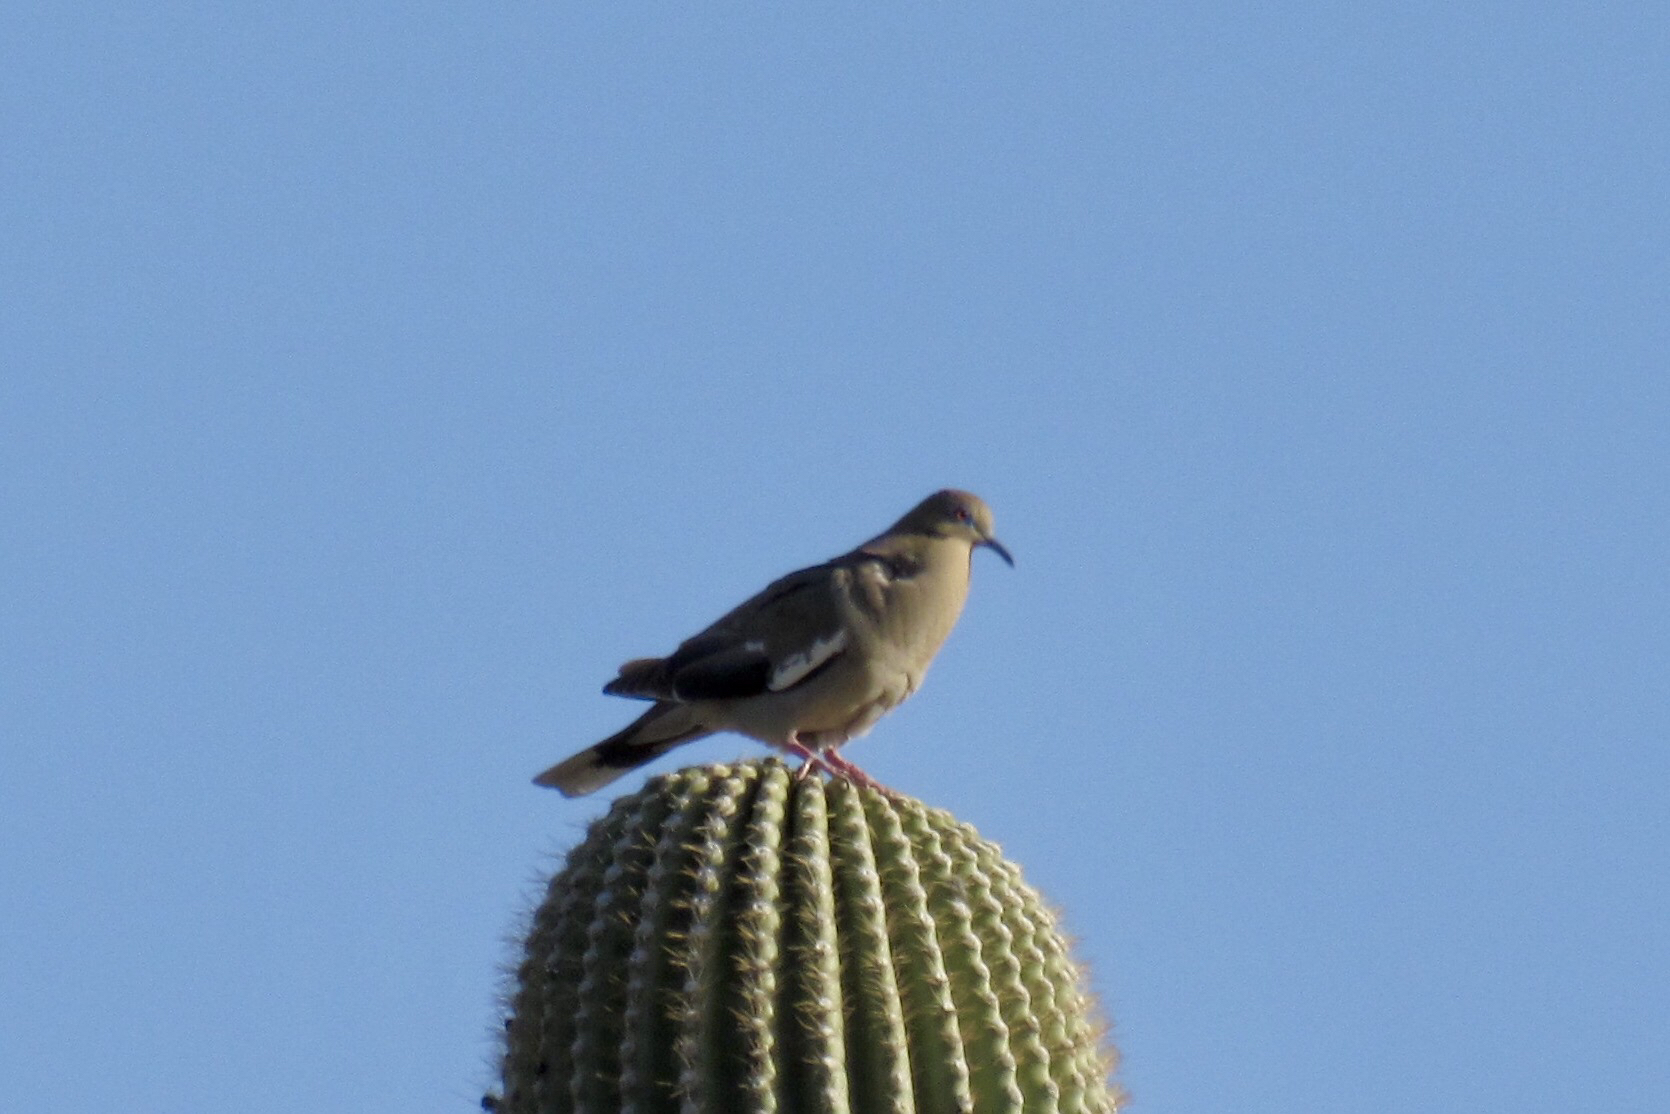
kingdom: Animalia
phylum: Chordata
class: Aves
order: Columbiformes
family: Columbidae
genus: Zenaida
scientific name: Zenaida asiatica
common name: White-winged dove
